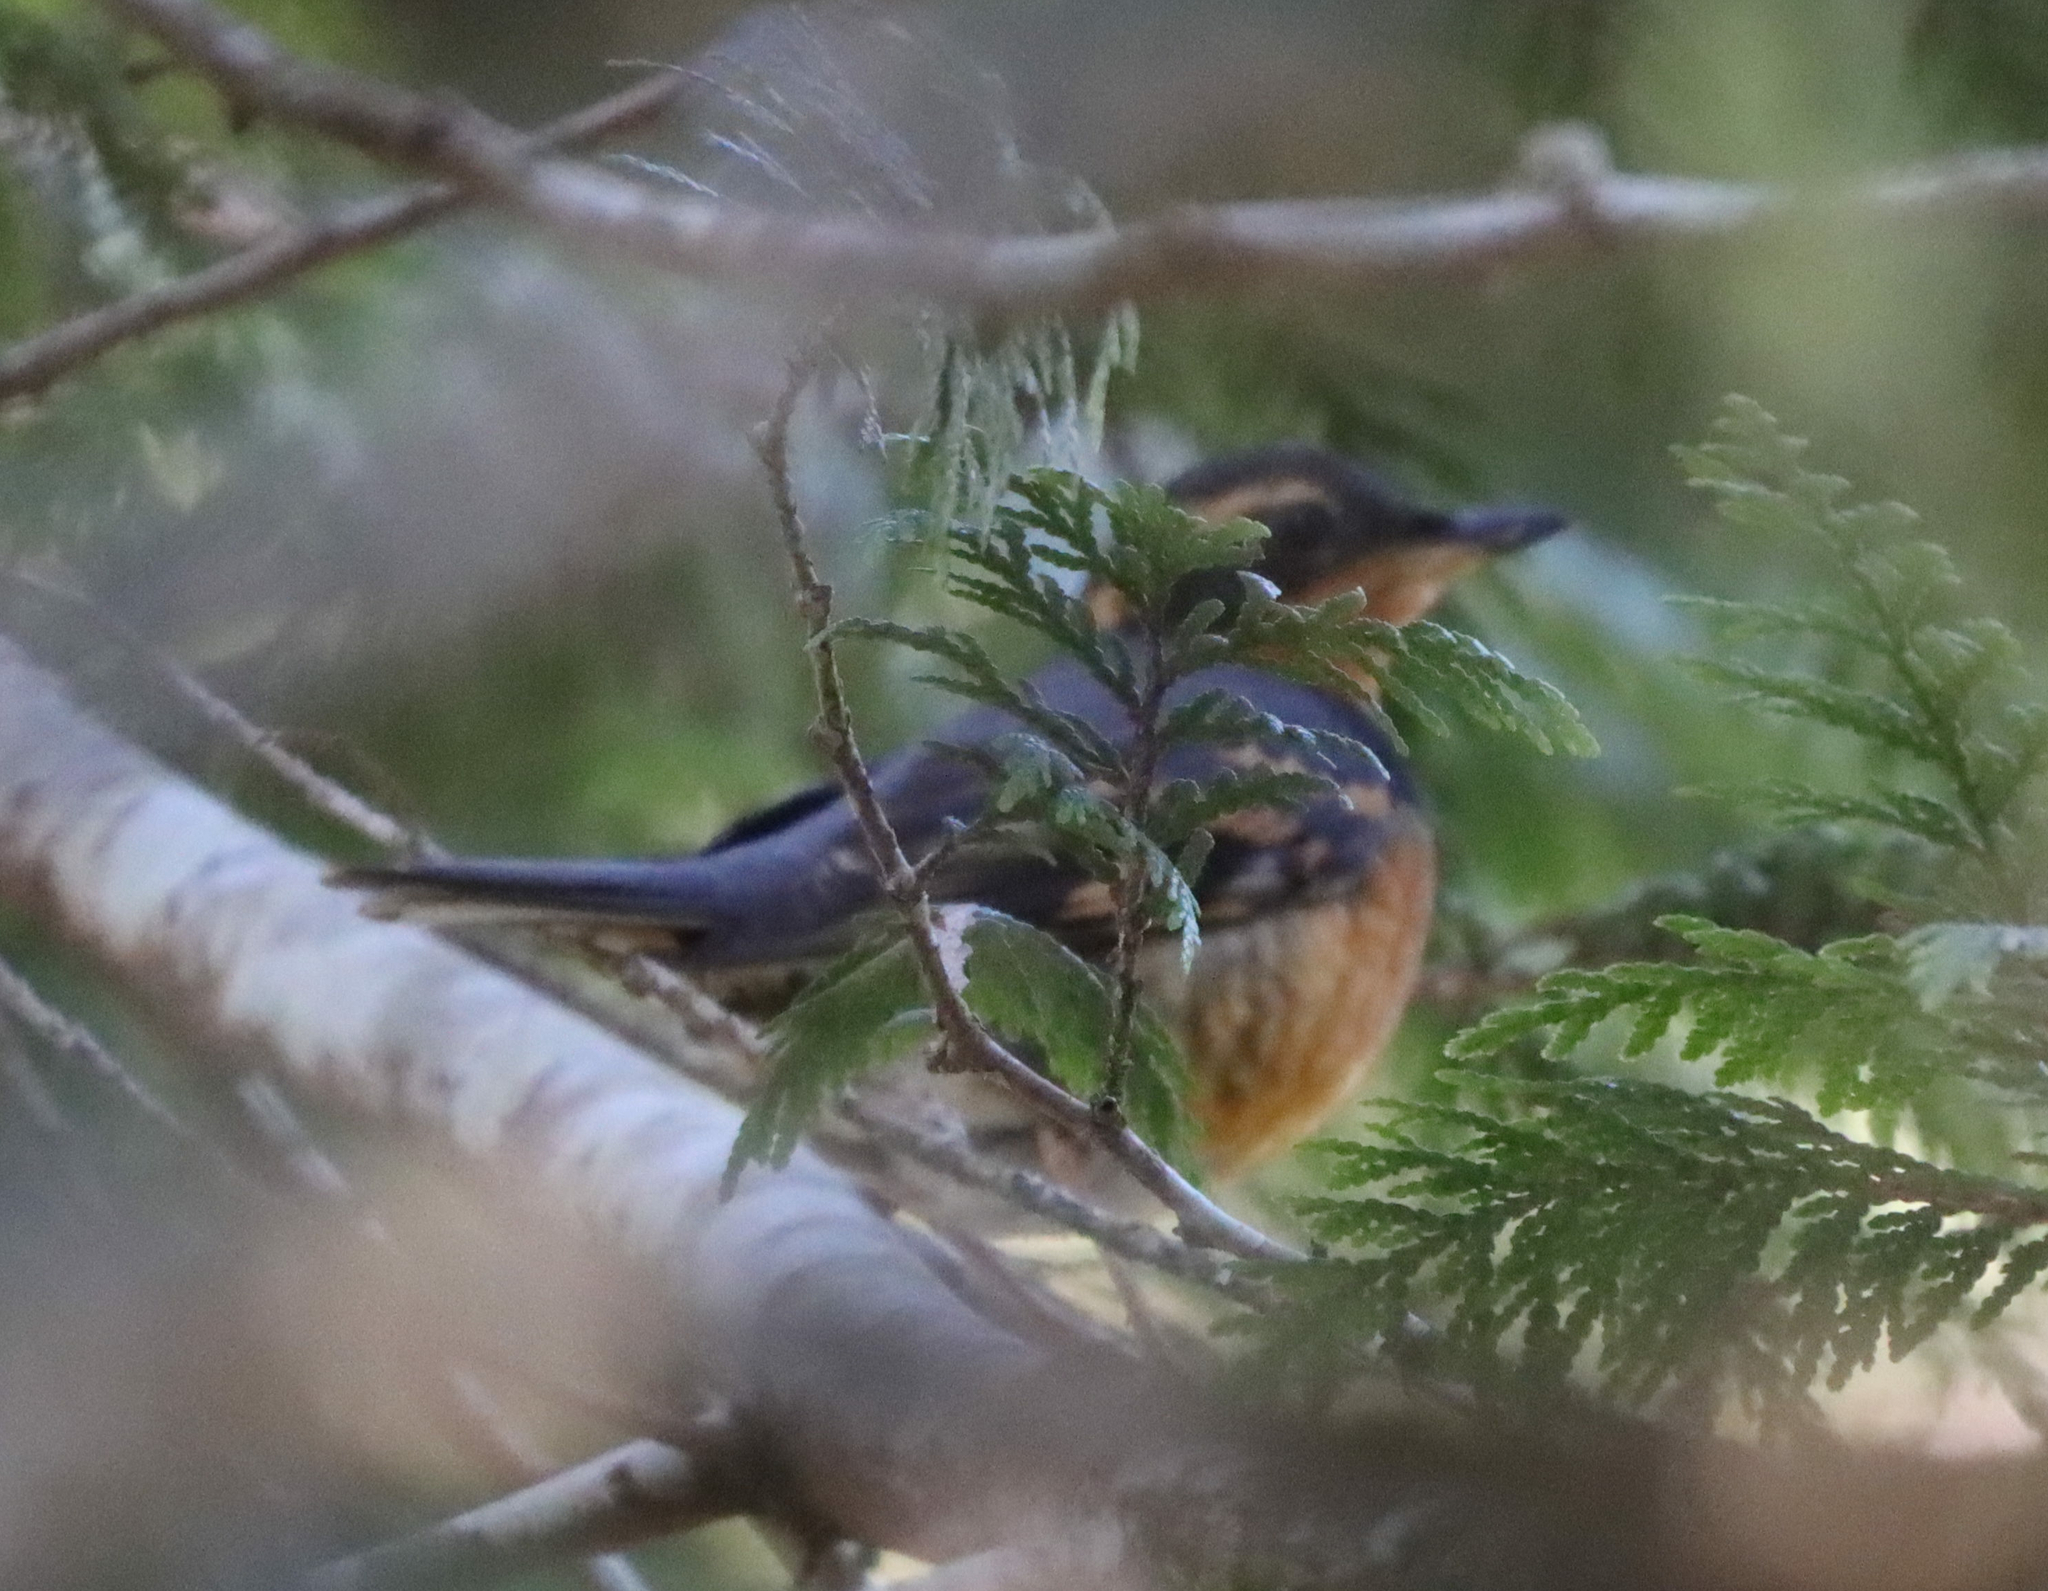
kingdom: Animalia
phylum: Chordata
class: Aves
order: Passeriformes
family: Turdidae
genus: Ixoreus
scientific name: Ixoreus naevius
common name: Varied thrush
